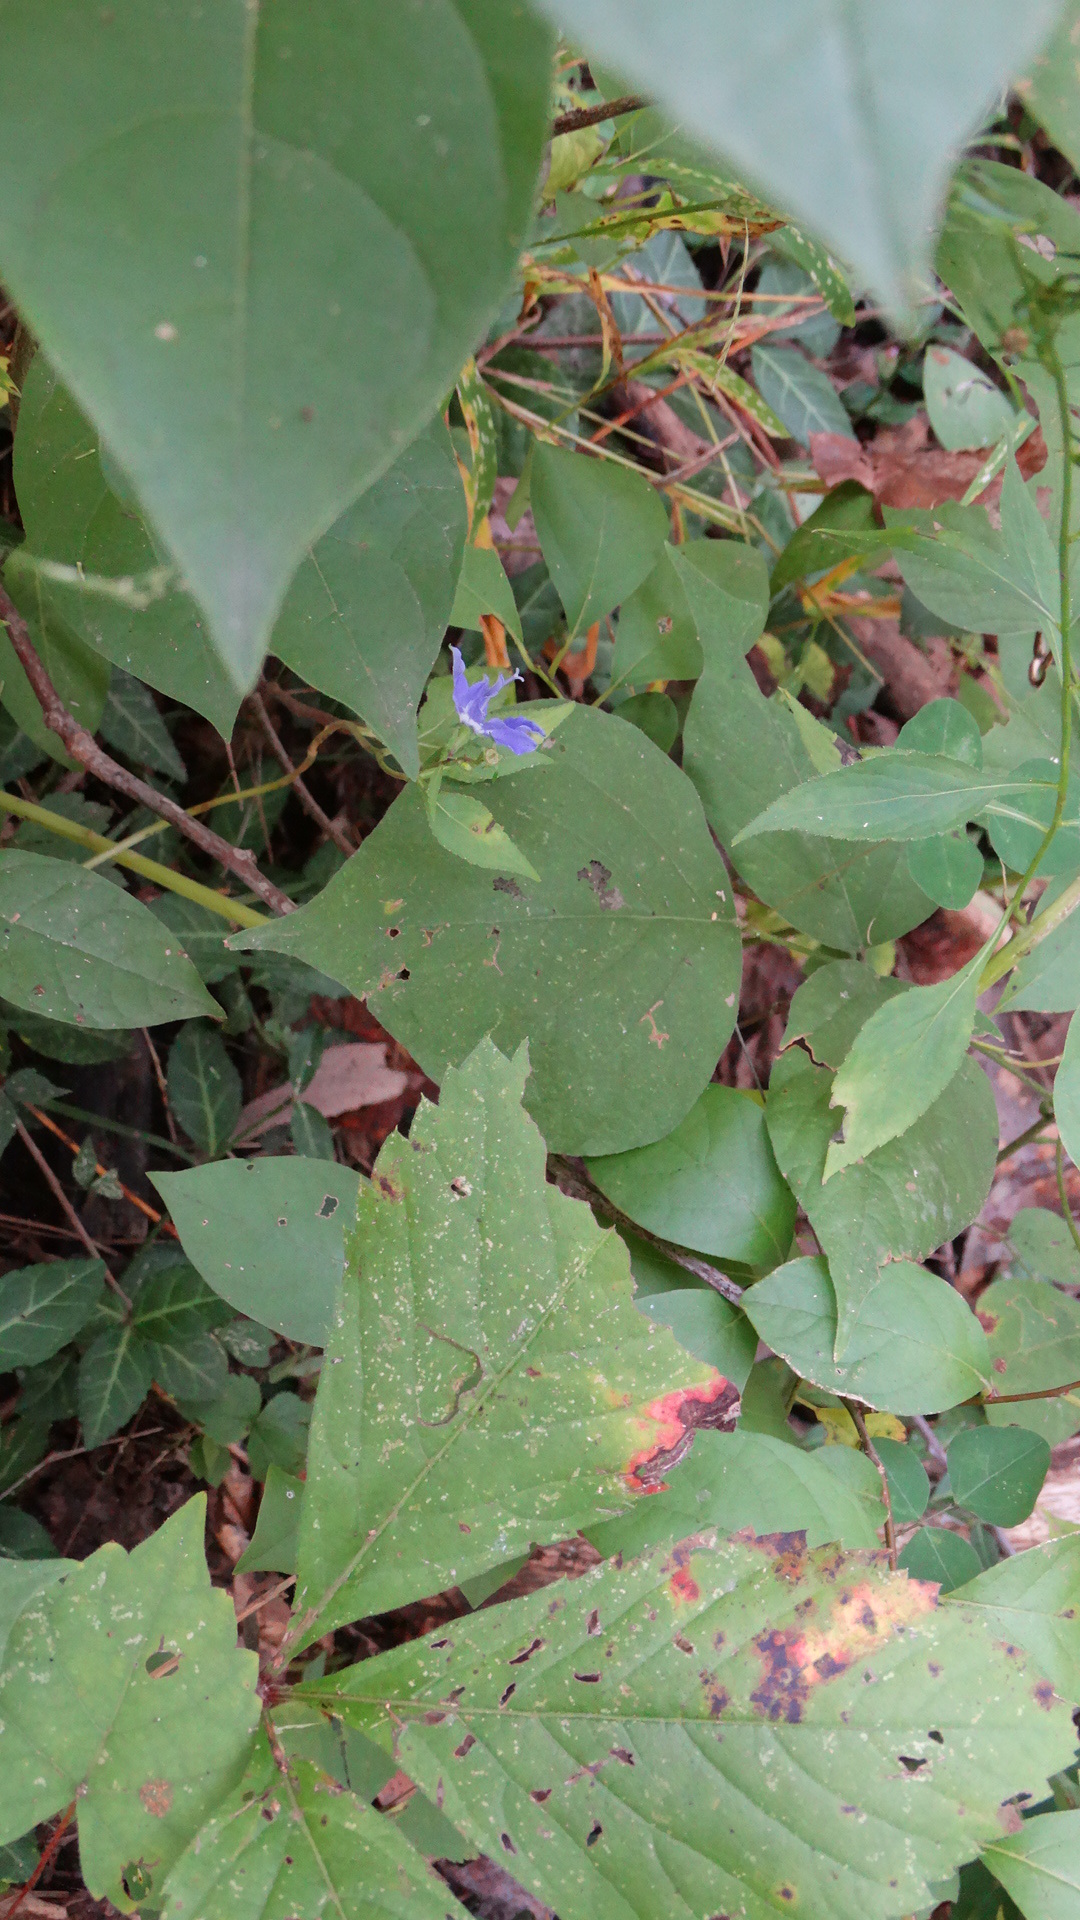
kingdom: Plantae
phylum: Tracheophyta
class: Magnoliopsida
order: Asterales
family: Campanulaceae
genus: Campanulastrum
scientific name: Campanulastrum americanum
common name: American bellflower
